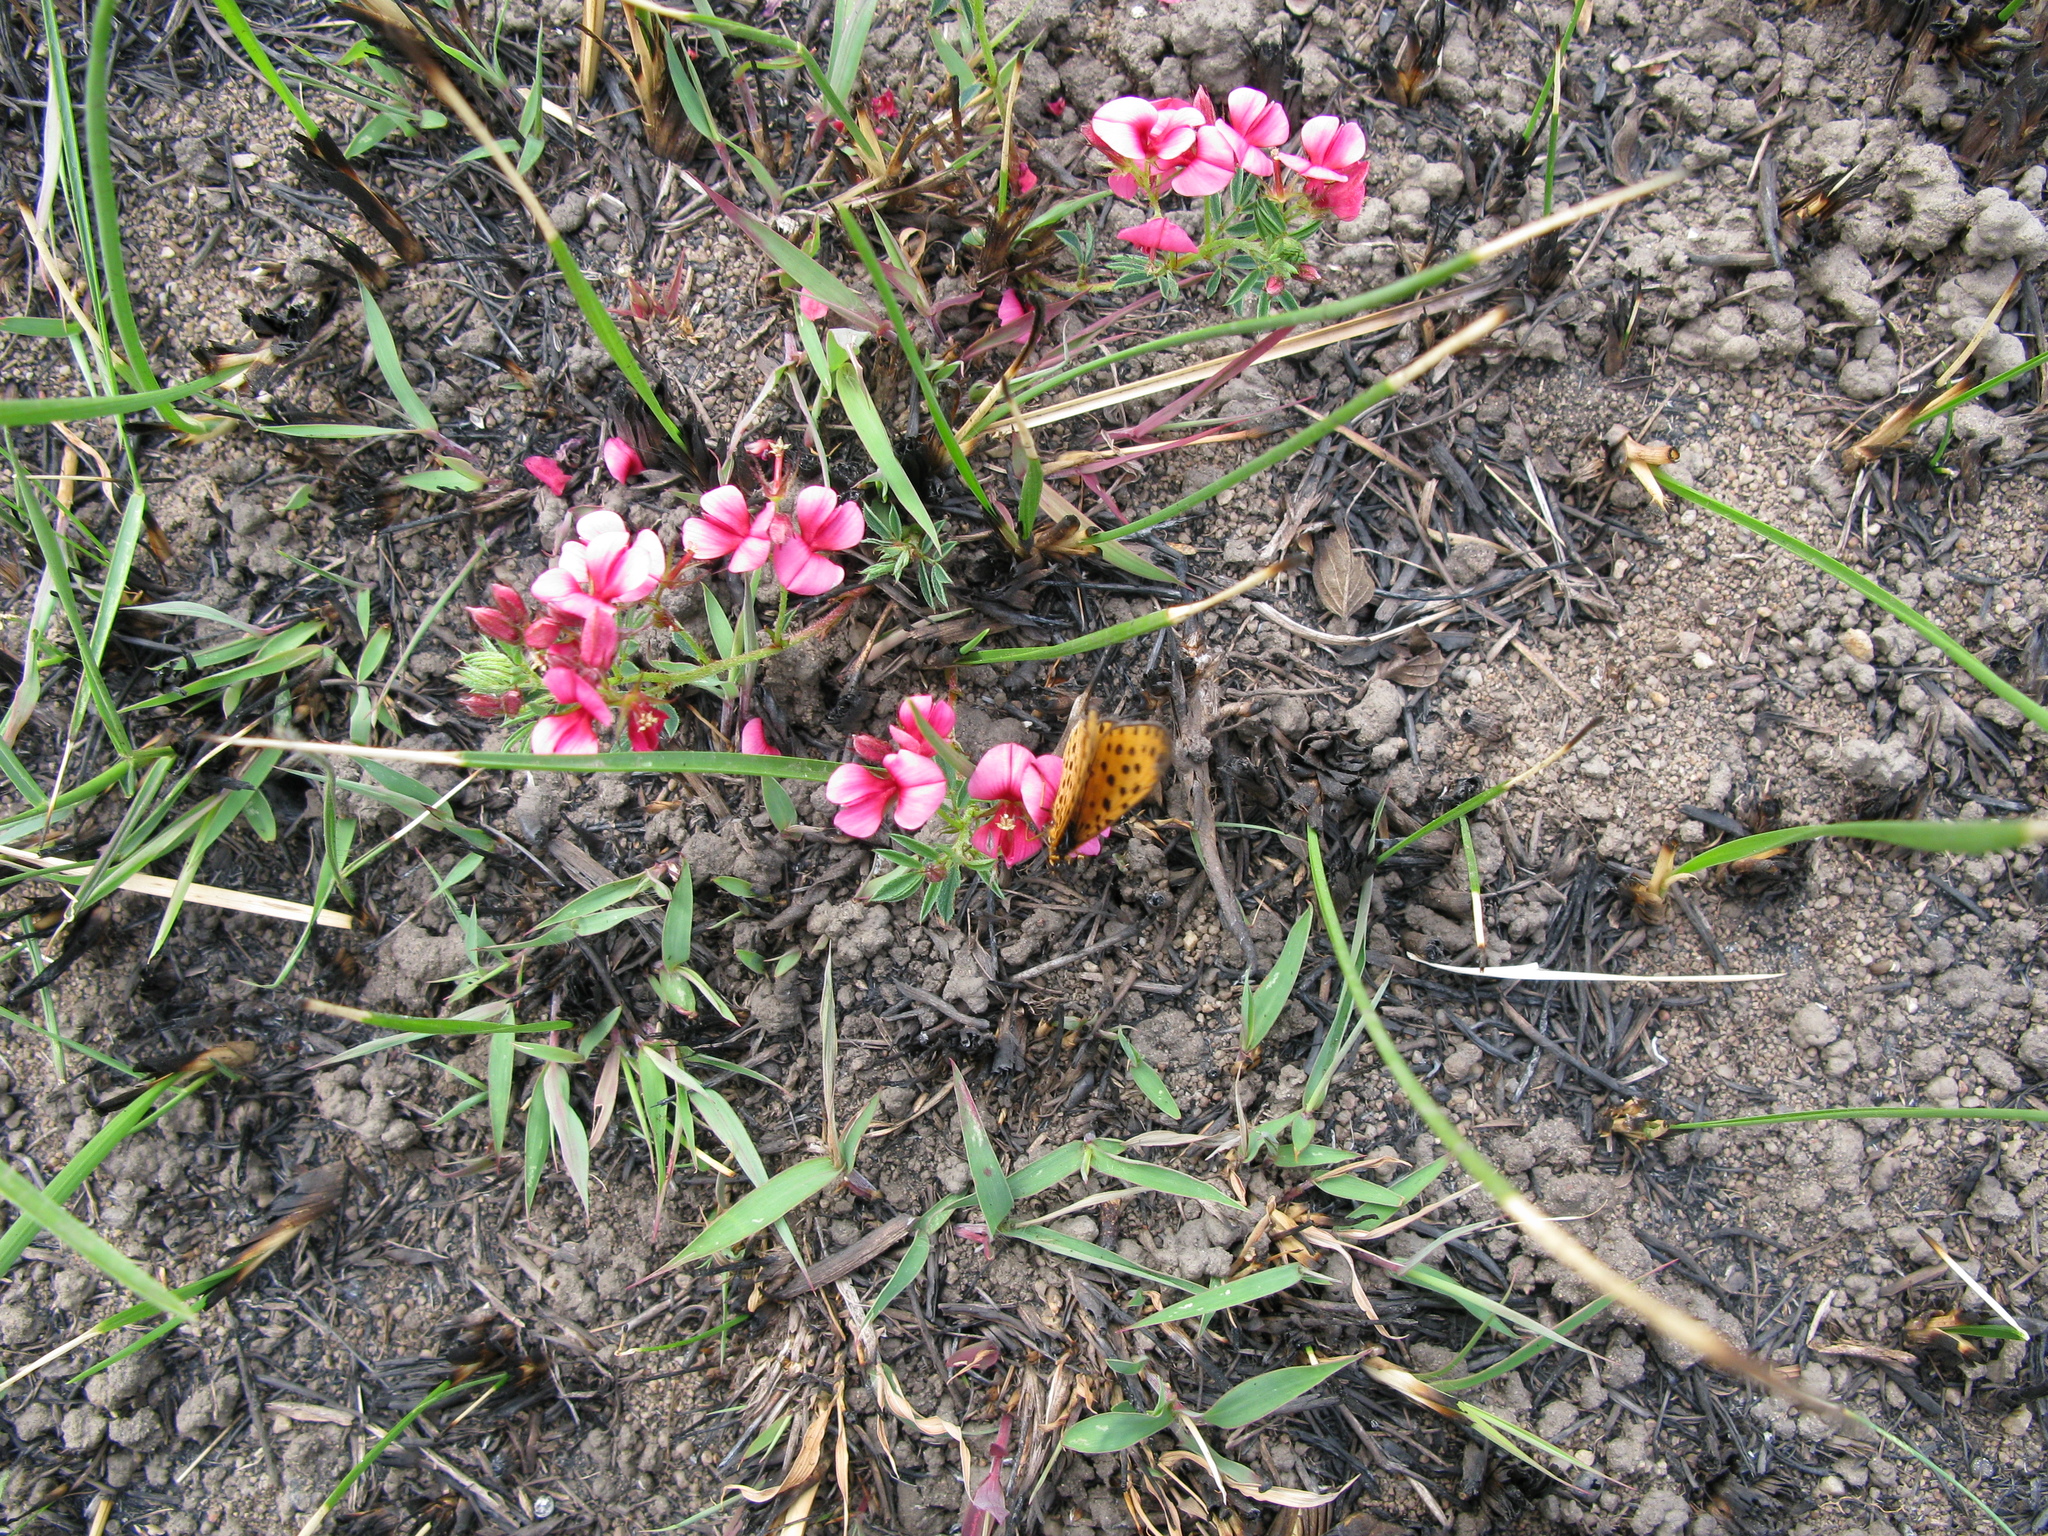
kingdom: Plantae
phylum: Tracheophyta
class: Magnoliopsida
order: Fabales
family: Fabaceae
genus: Indigofera
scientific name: Indigofera rubroglandulosa
